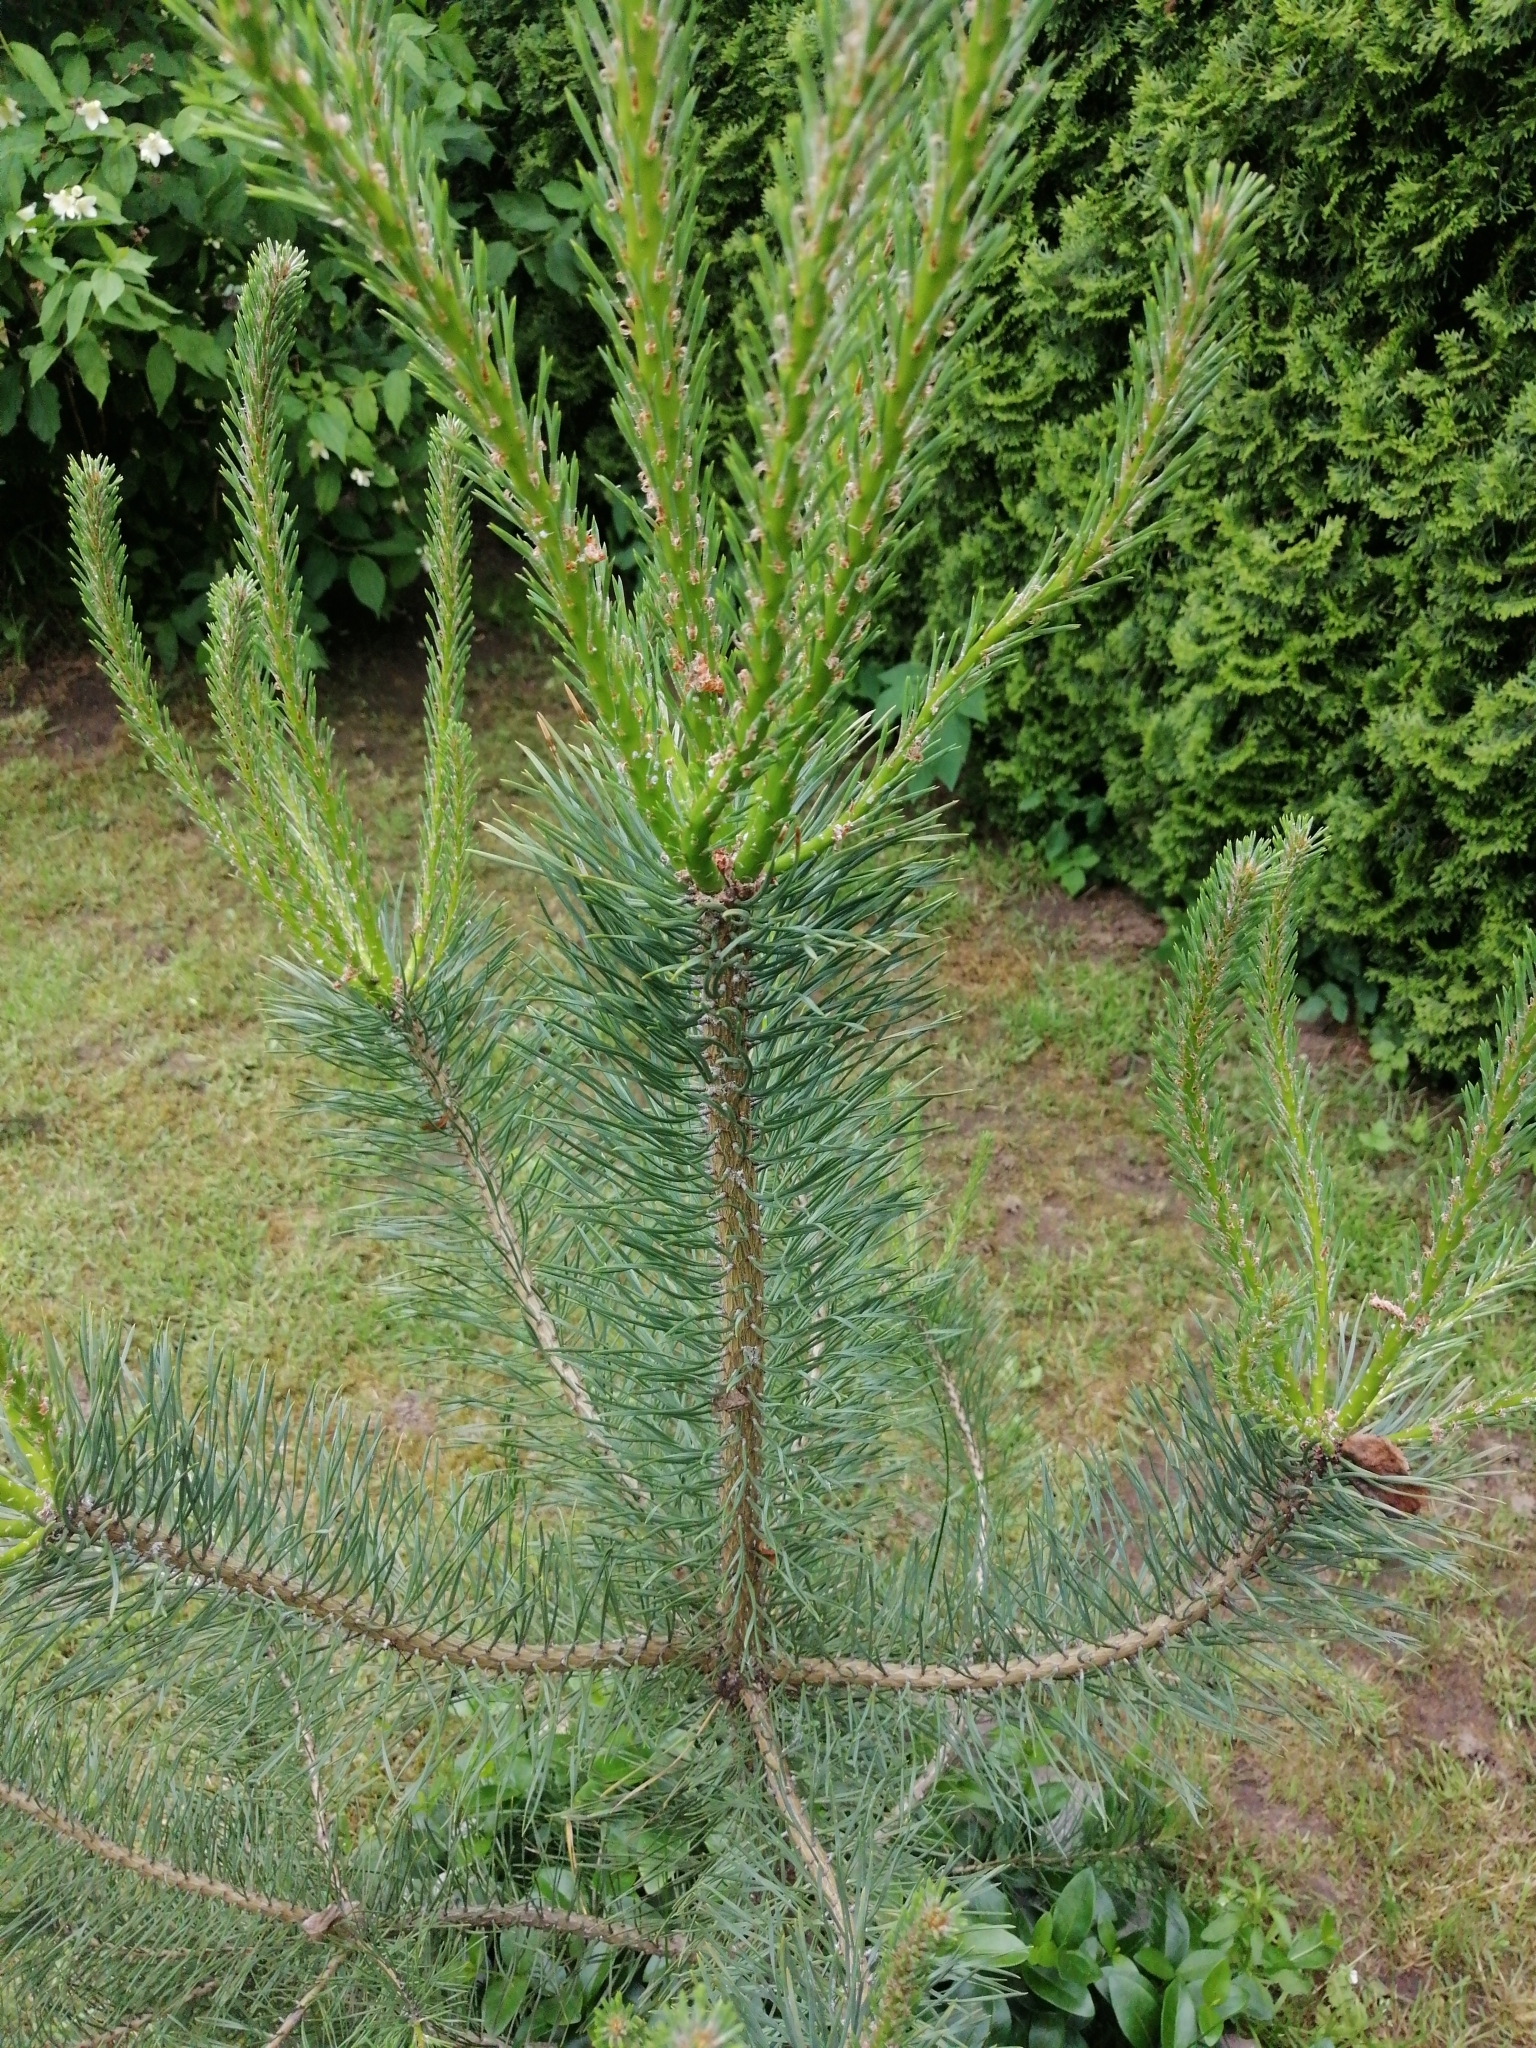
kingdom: Plantae
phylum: Tracheophyta
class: Pinopsida
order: Pinales
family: Pinaceae
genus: Pinus
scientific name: Pinus sylvestris
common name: Scots pine
